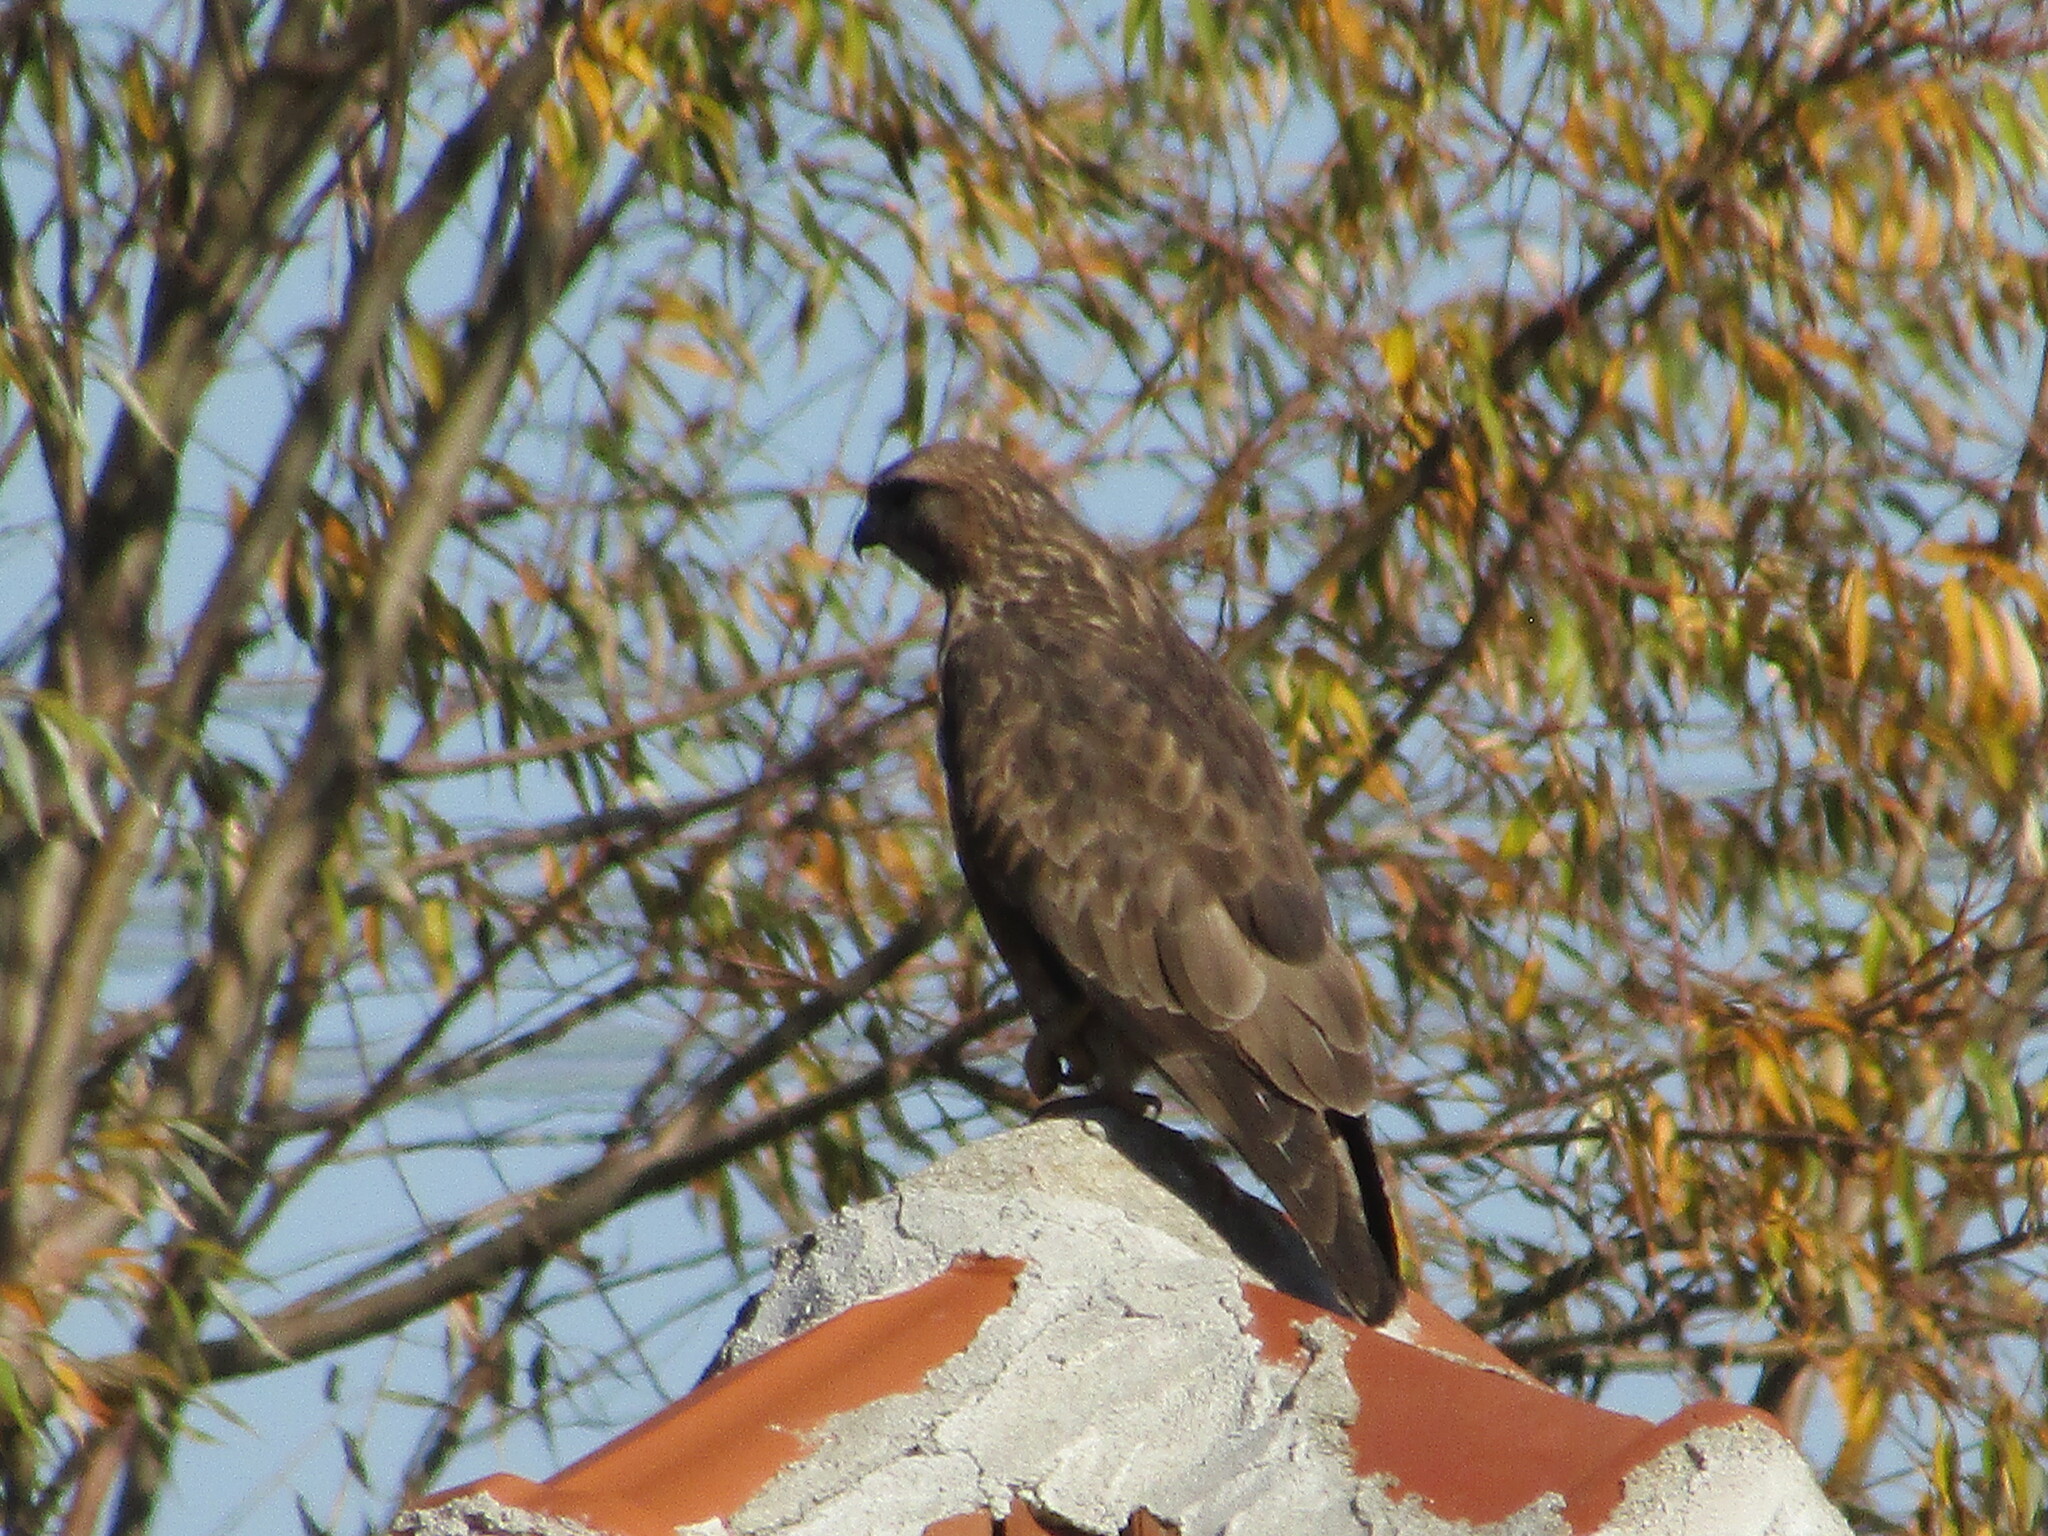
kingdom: Animalia
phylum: Chordata
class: Aves
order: Accipitriformes
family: Accipitridae
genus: Buteo
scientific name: Buteo buteo
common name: Common buzzard
